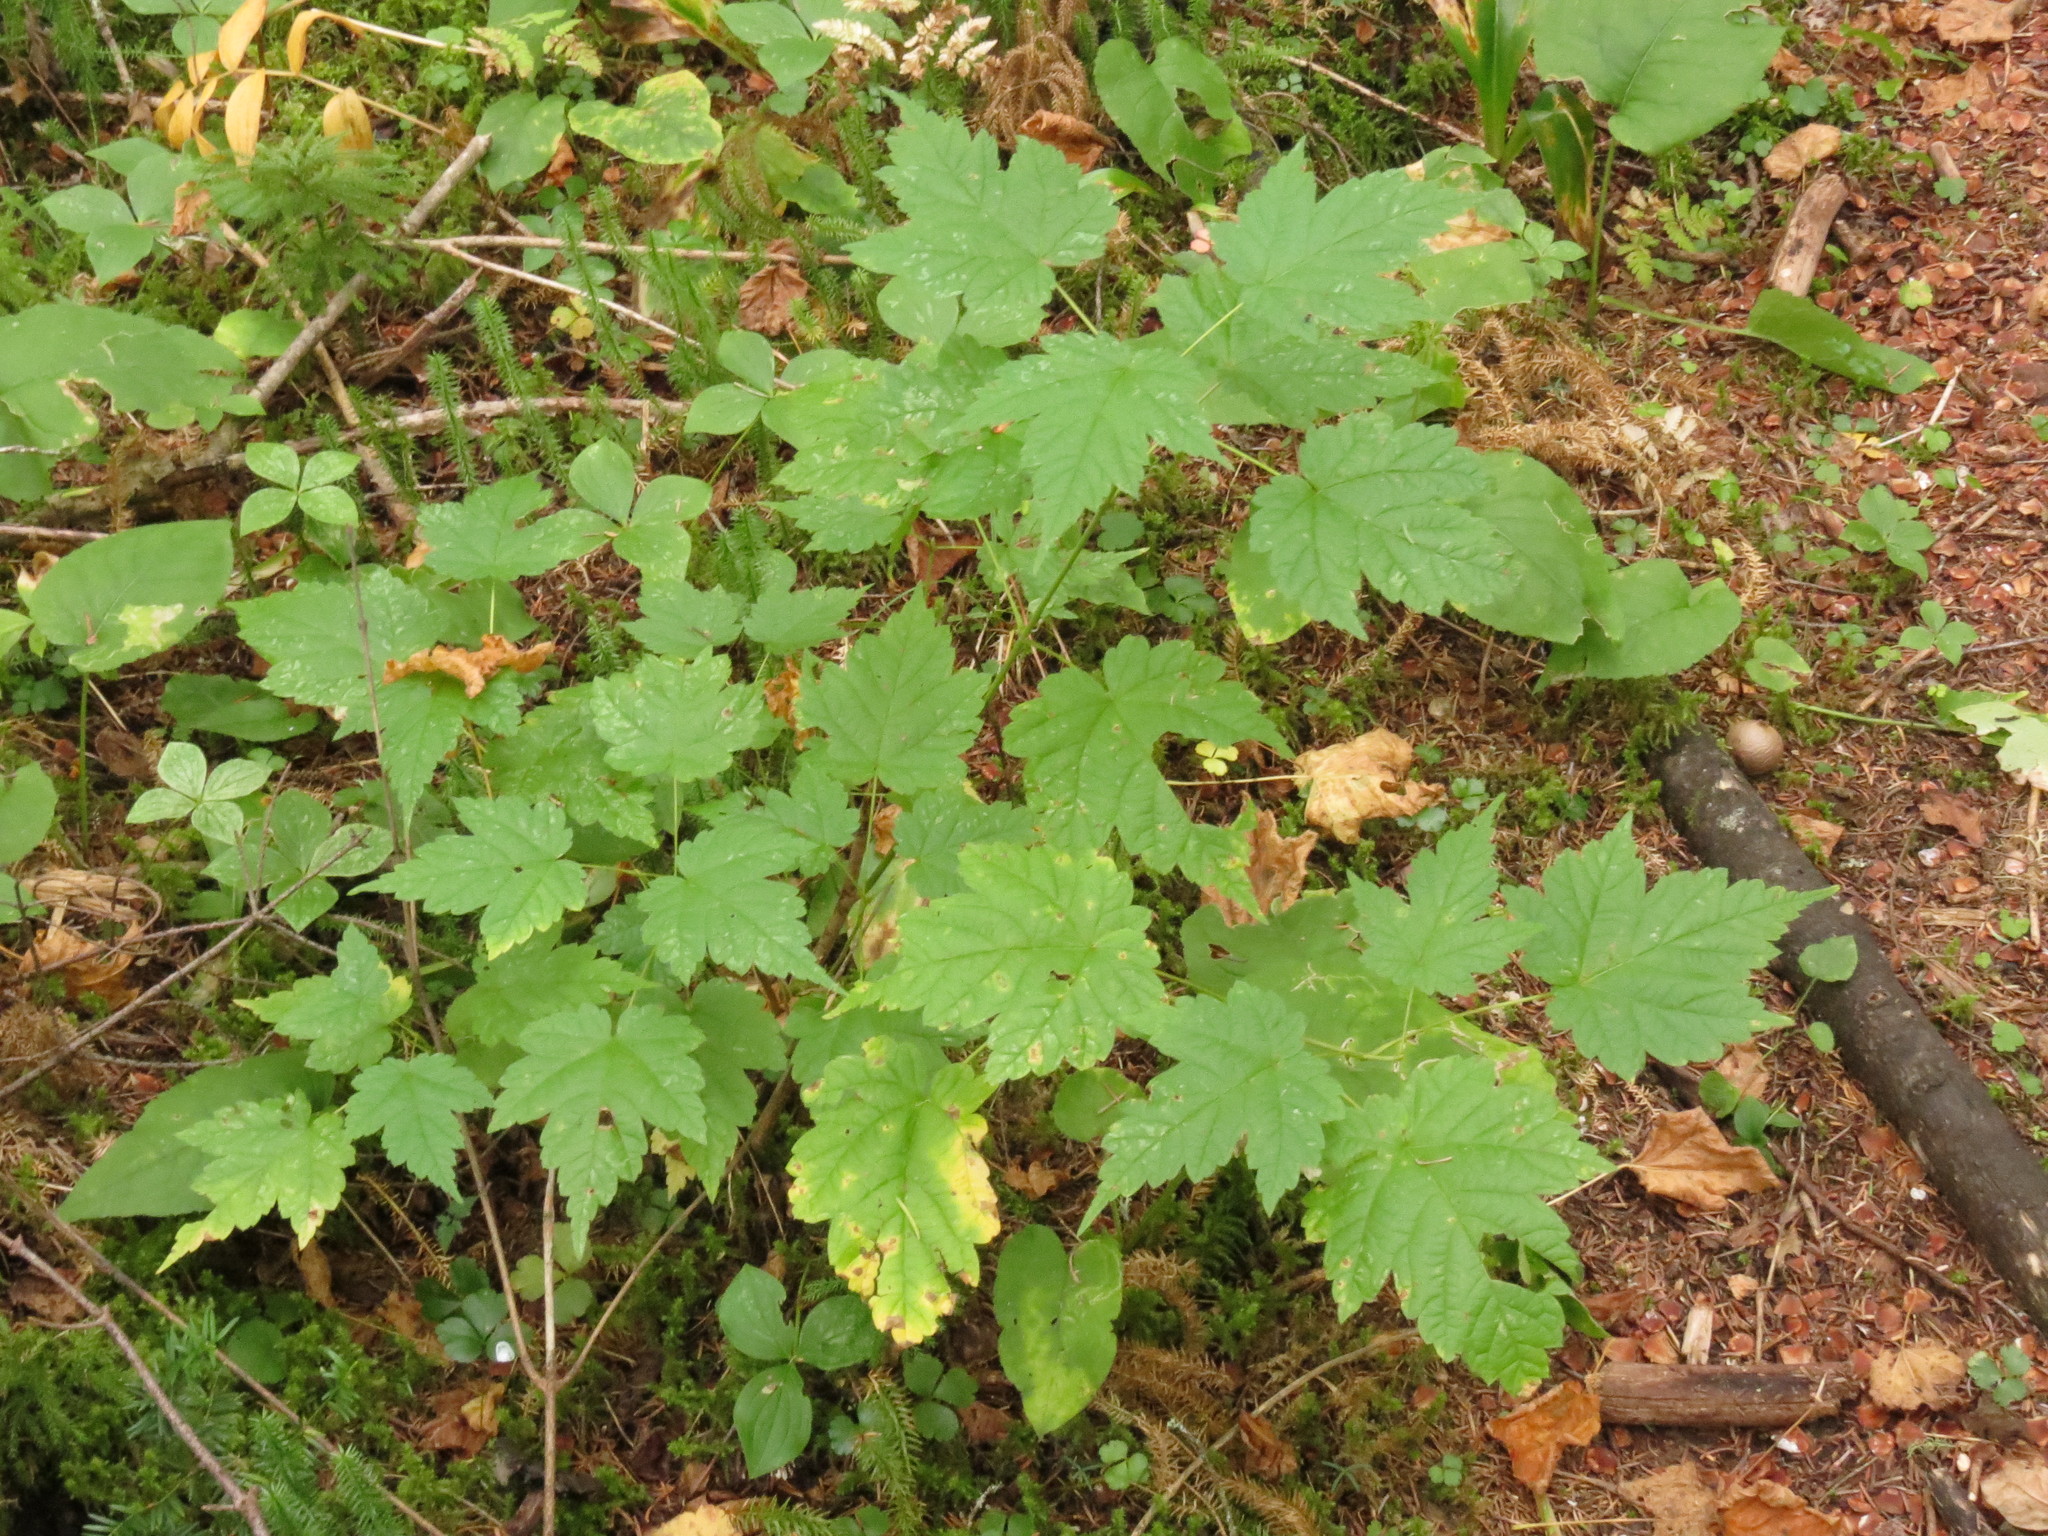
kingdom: Plantae
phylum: Tracheophyta
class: Magnoliopsida
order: Sapindales
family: Sapindaceae
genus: Acer
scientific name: Acer spicatum
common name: Mountain maple
